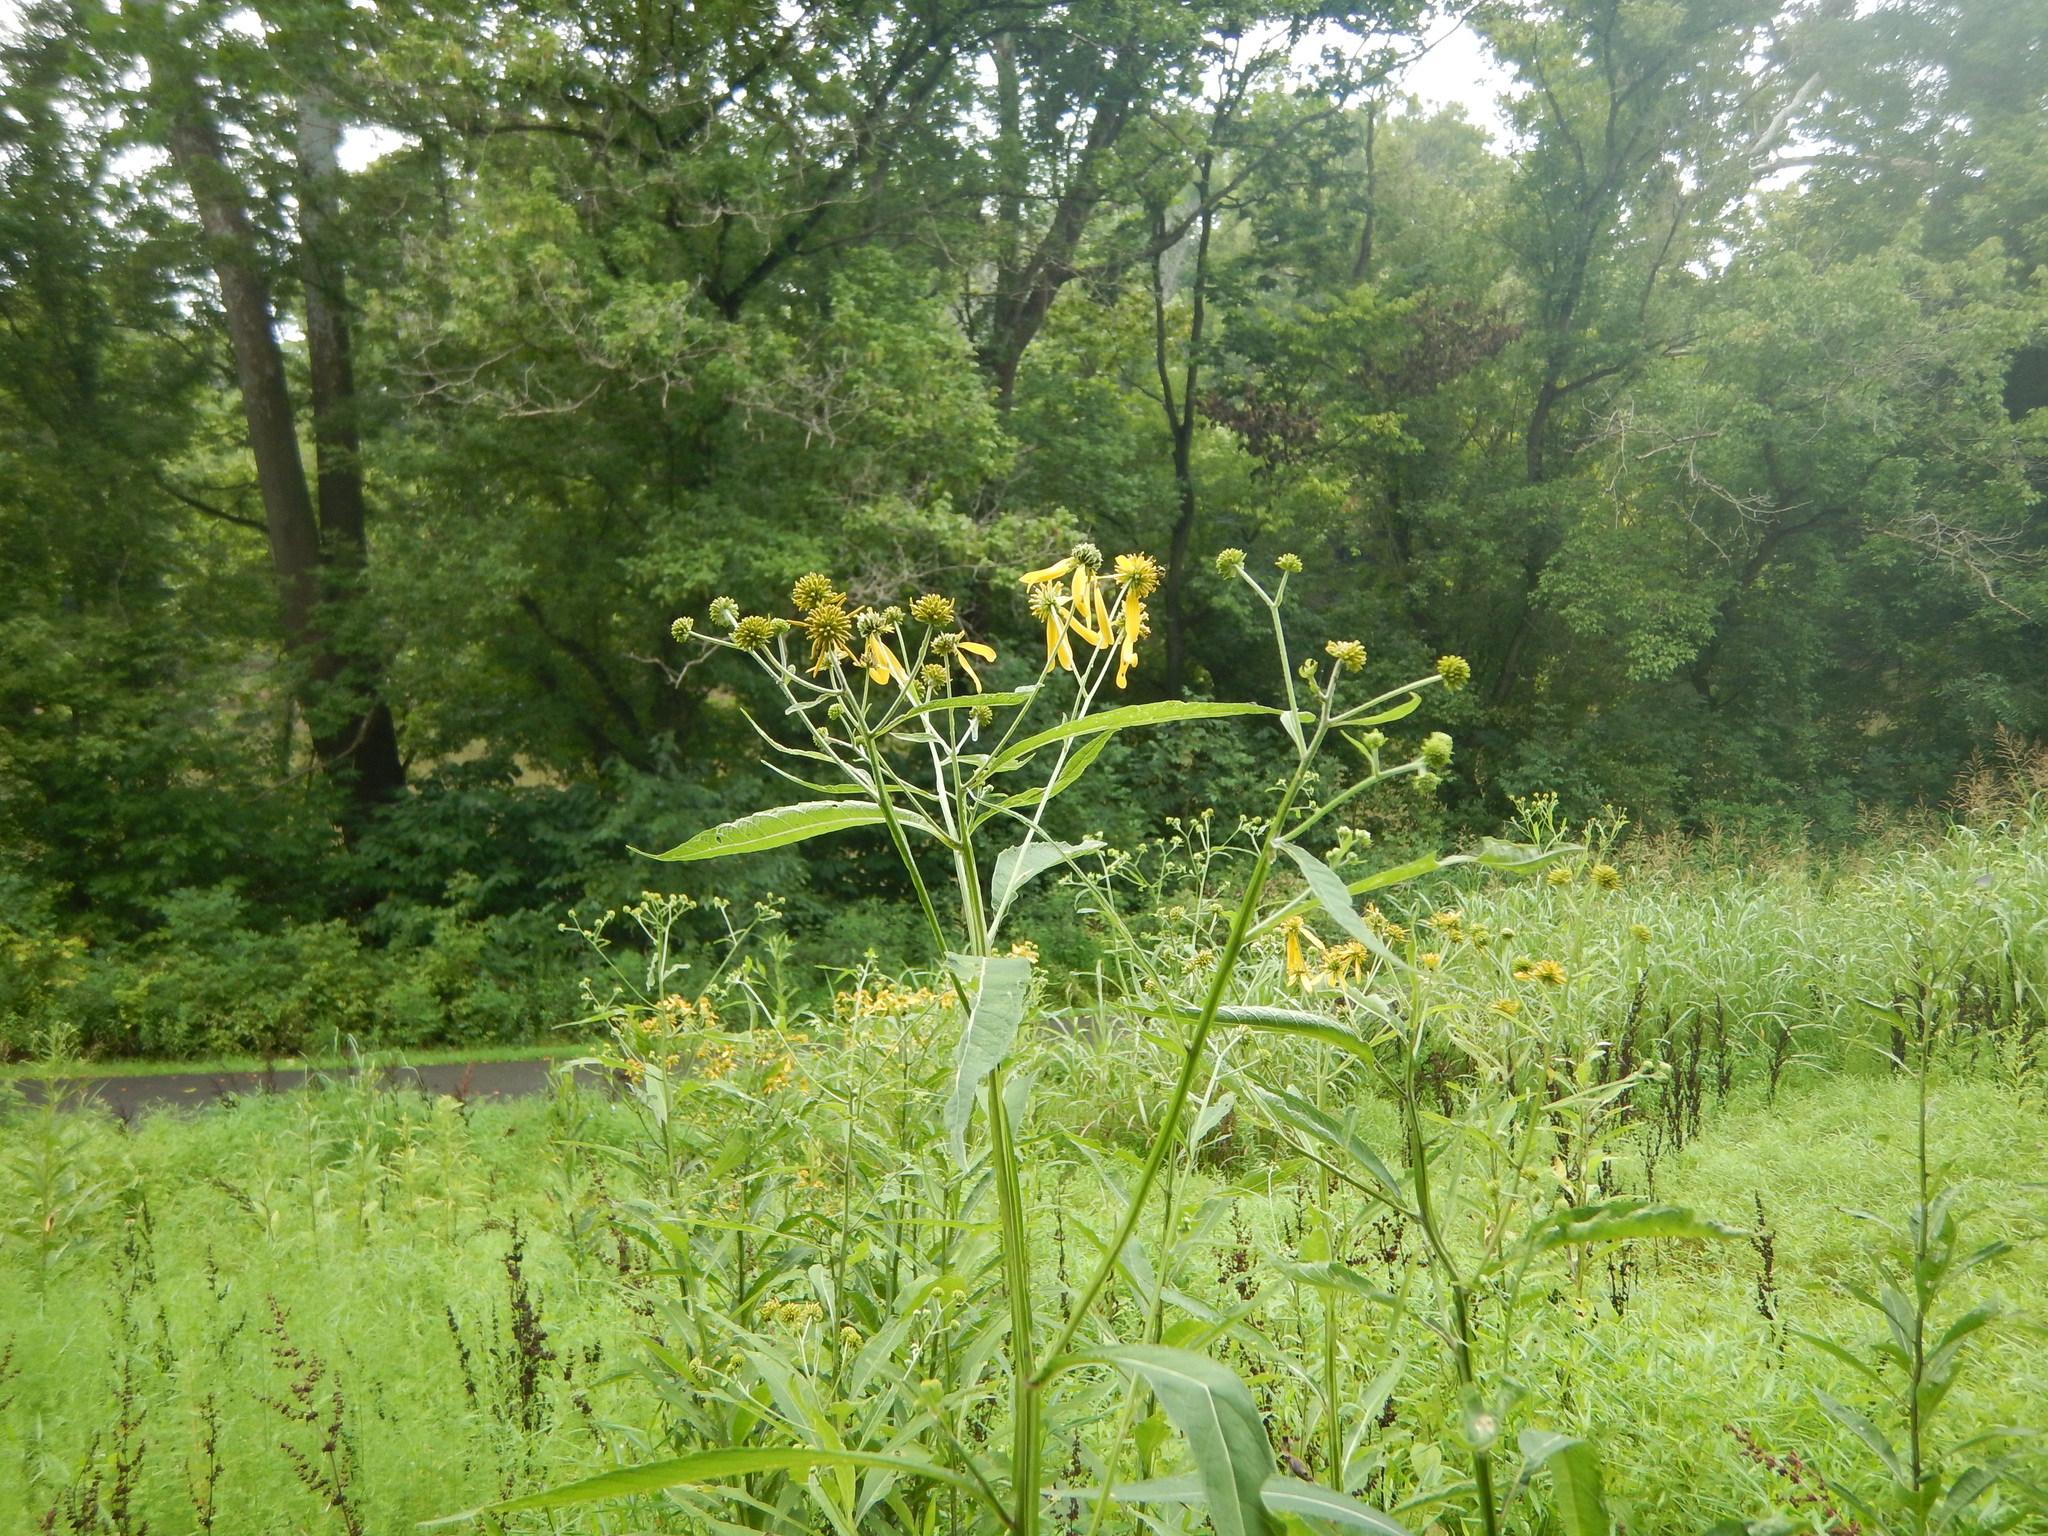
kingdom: Plantae
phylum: Tracheophyta
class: Magnoliopsida
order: Asterales
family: Asteraceae
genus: Verbesina
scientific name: Verbesina alternifolia
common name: Wingstem
